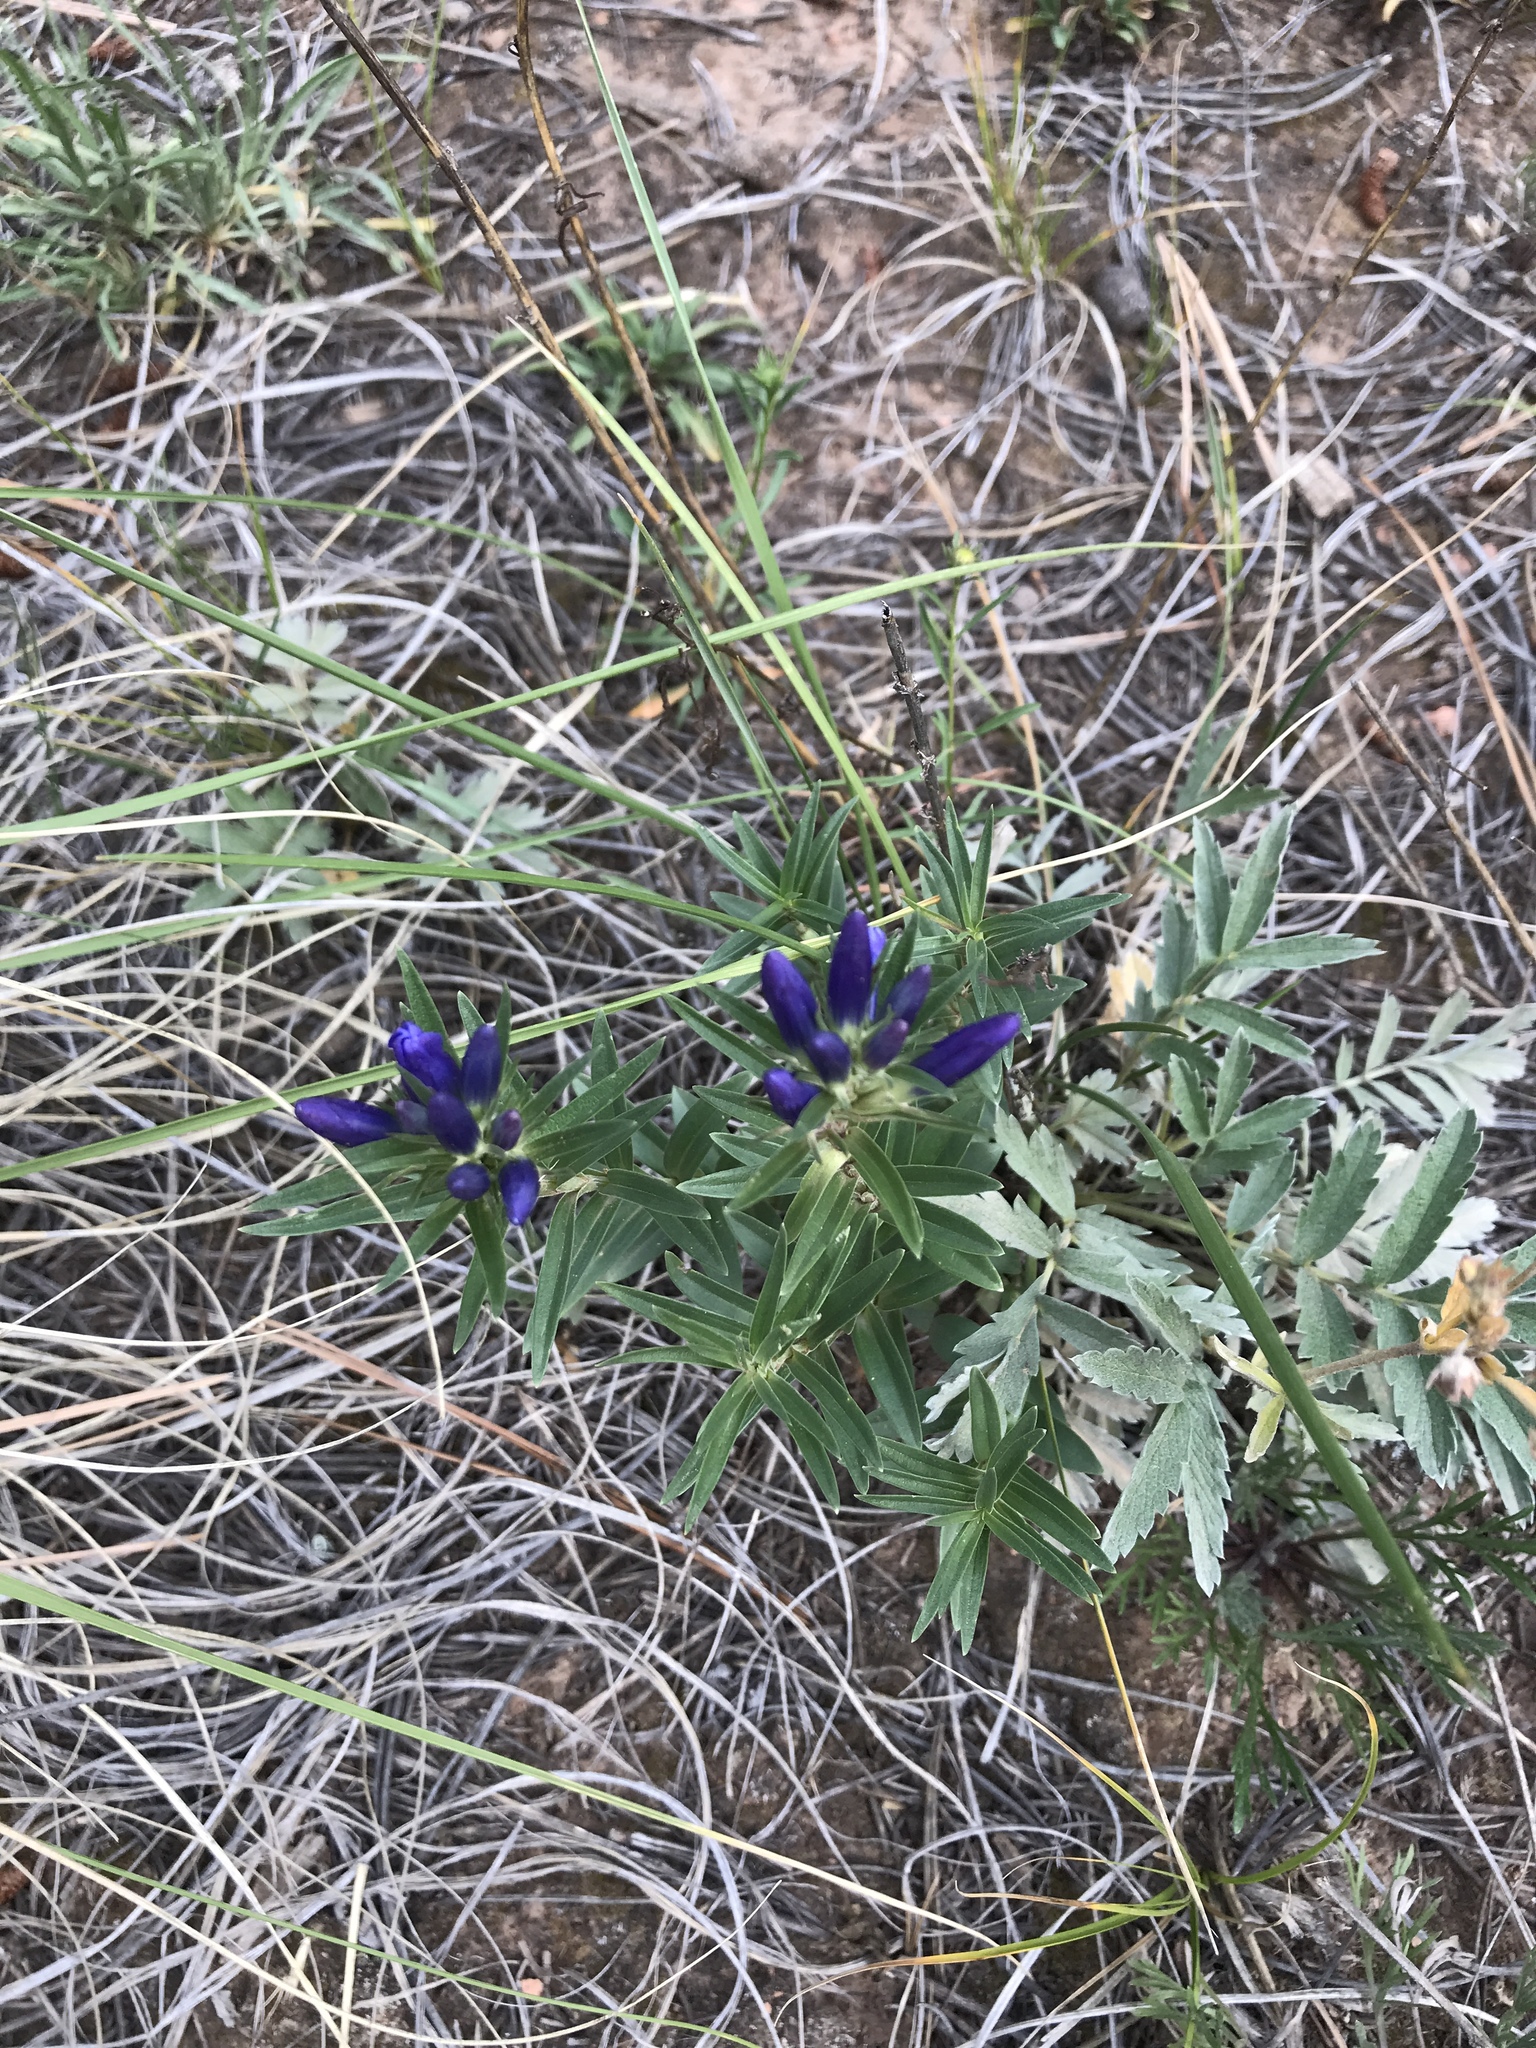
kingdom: Plantae
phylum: Tracheophyta
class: Magnoliopsida
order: Gentianales
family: Gentianaceae
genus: Gentiana
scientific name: Gentiana affinis
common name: Rocky mountain gentian
